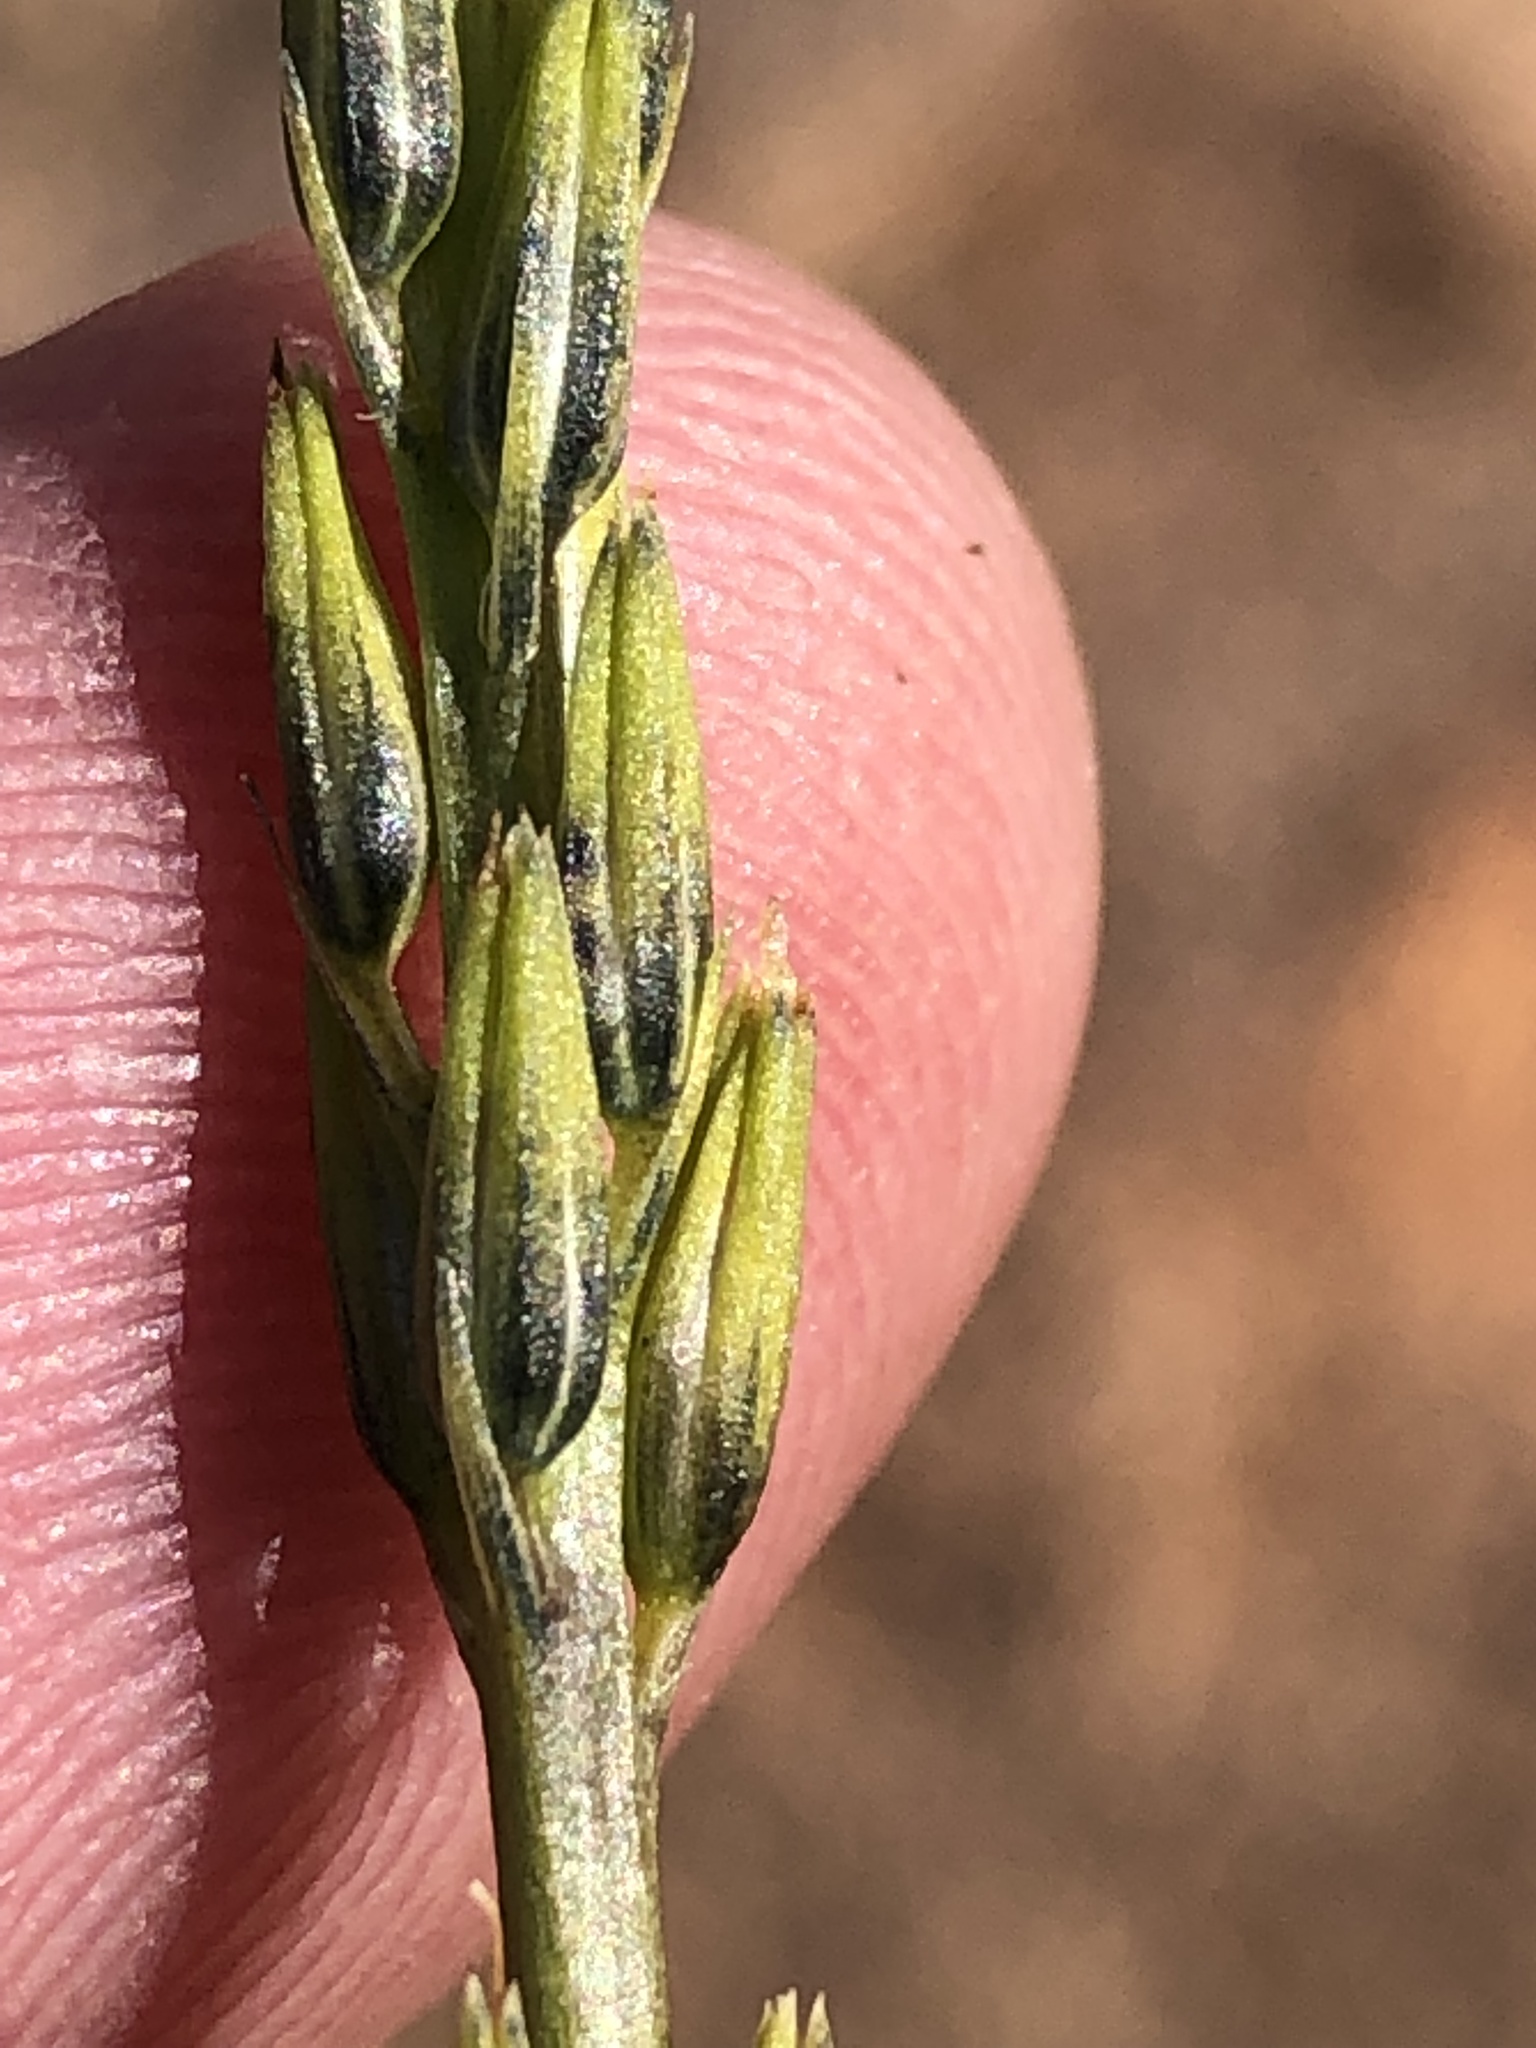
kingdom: Plantae
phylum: Tracheophyta
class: Magnoliopsida
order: Lamiales
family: Verbenaceae
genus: Chascanum
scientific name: Chascanum garipense
